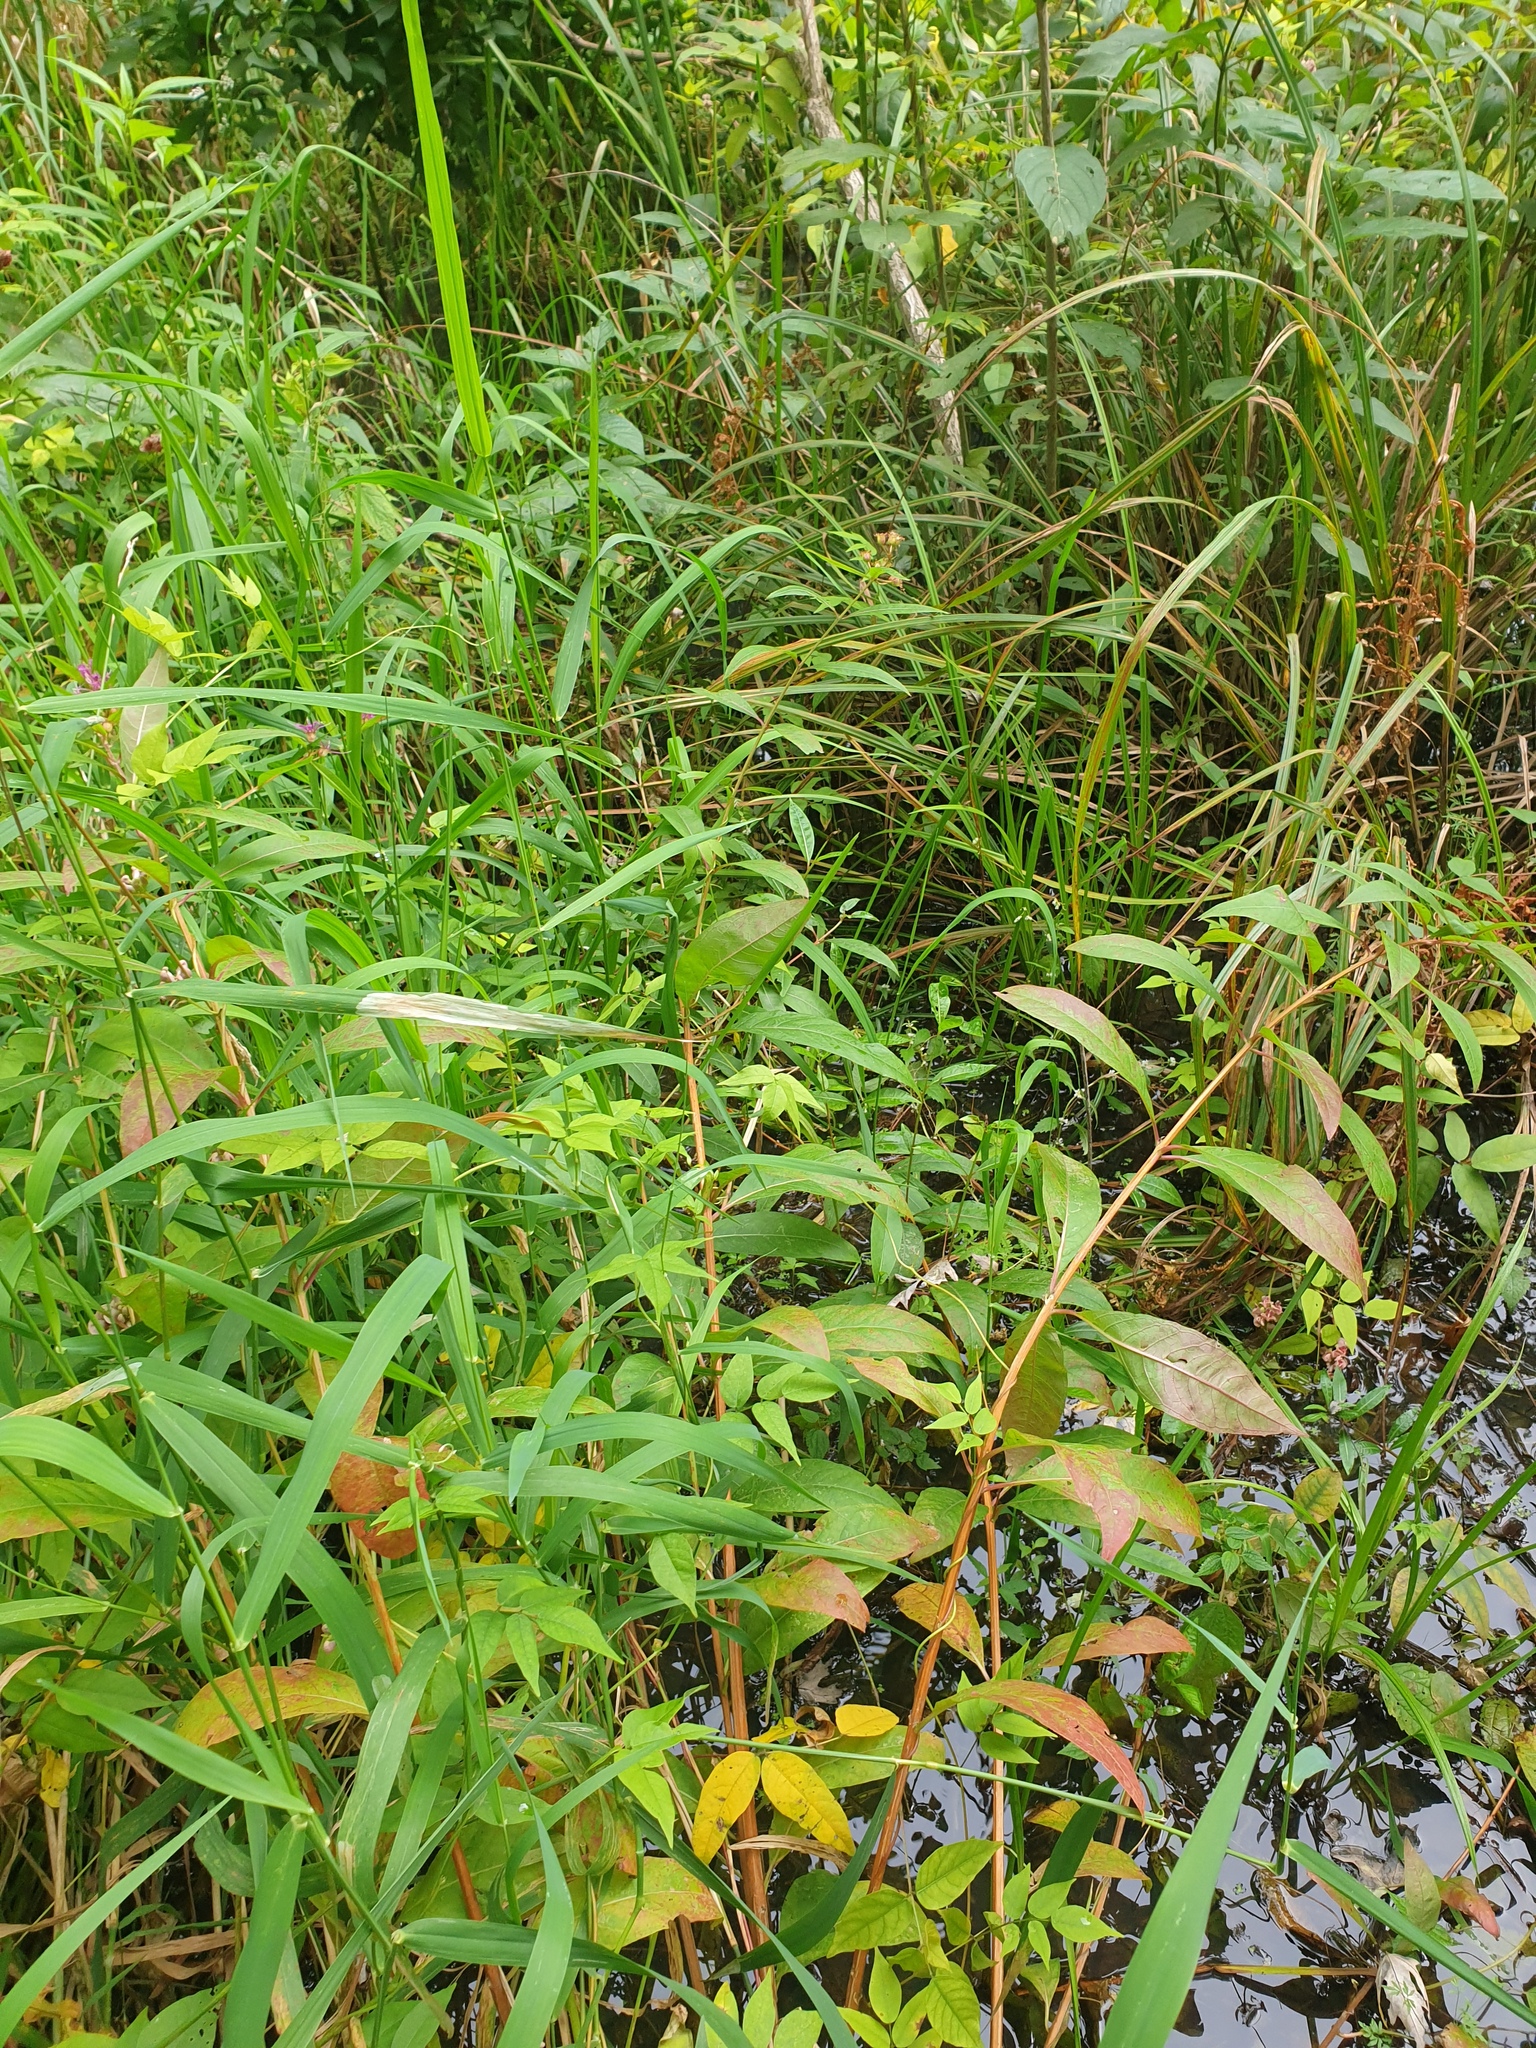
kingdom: Plantae
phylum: Tracheophyta
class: Magnoliopsida
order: Fabales
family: Fabaceae
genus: Apios
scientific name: Apios americana
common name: American potato-bean
